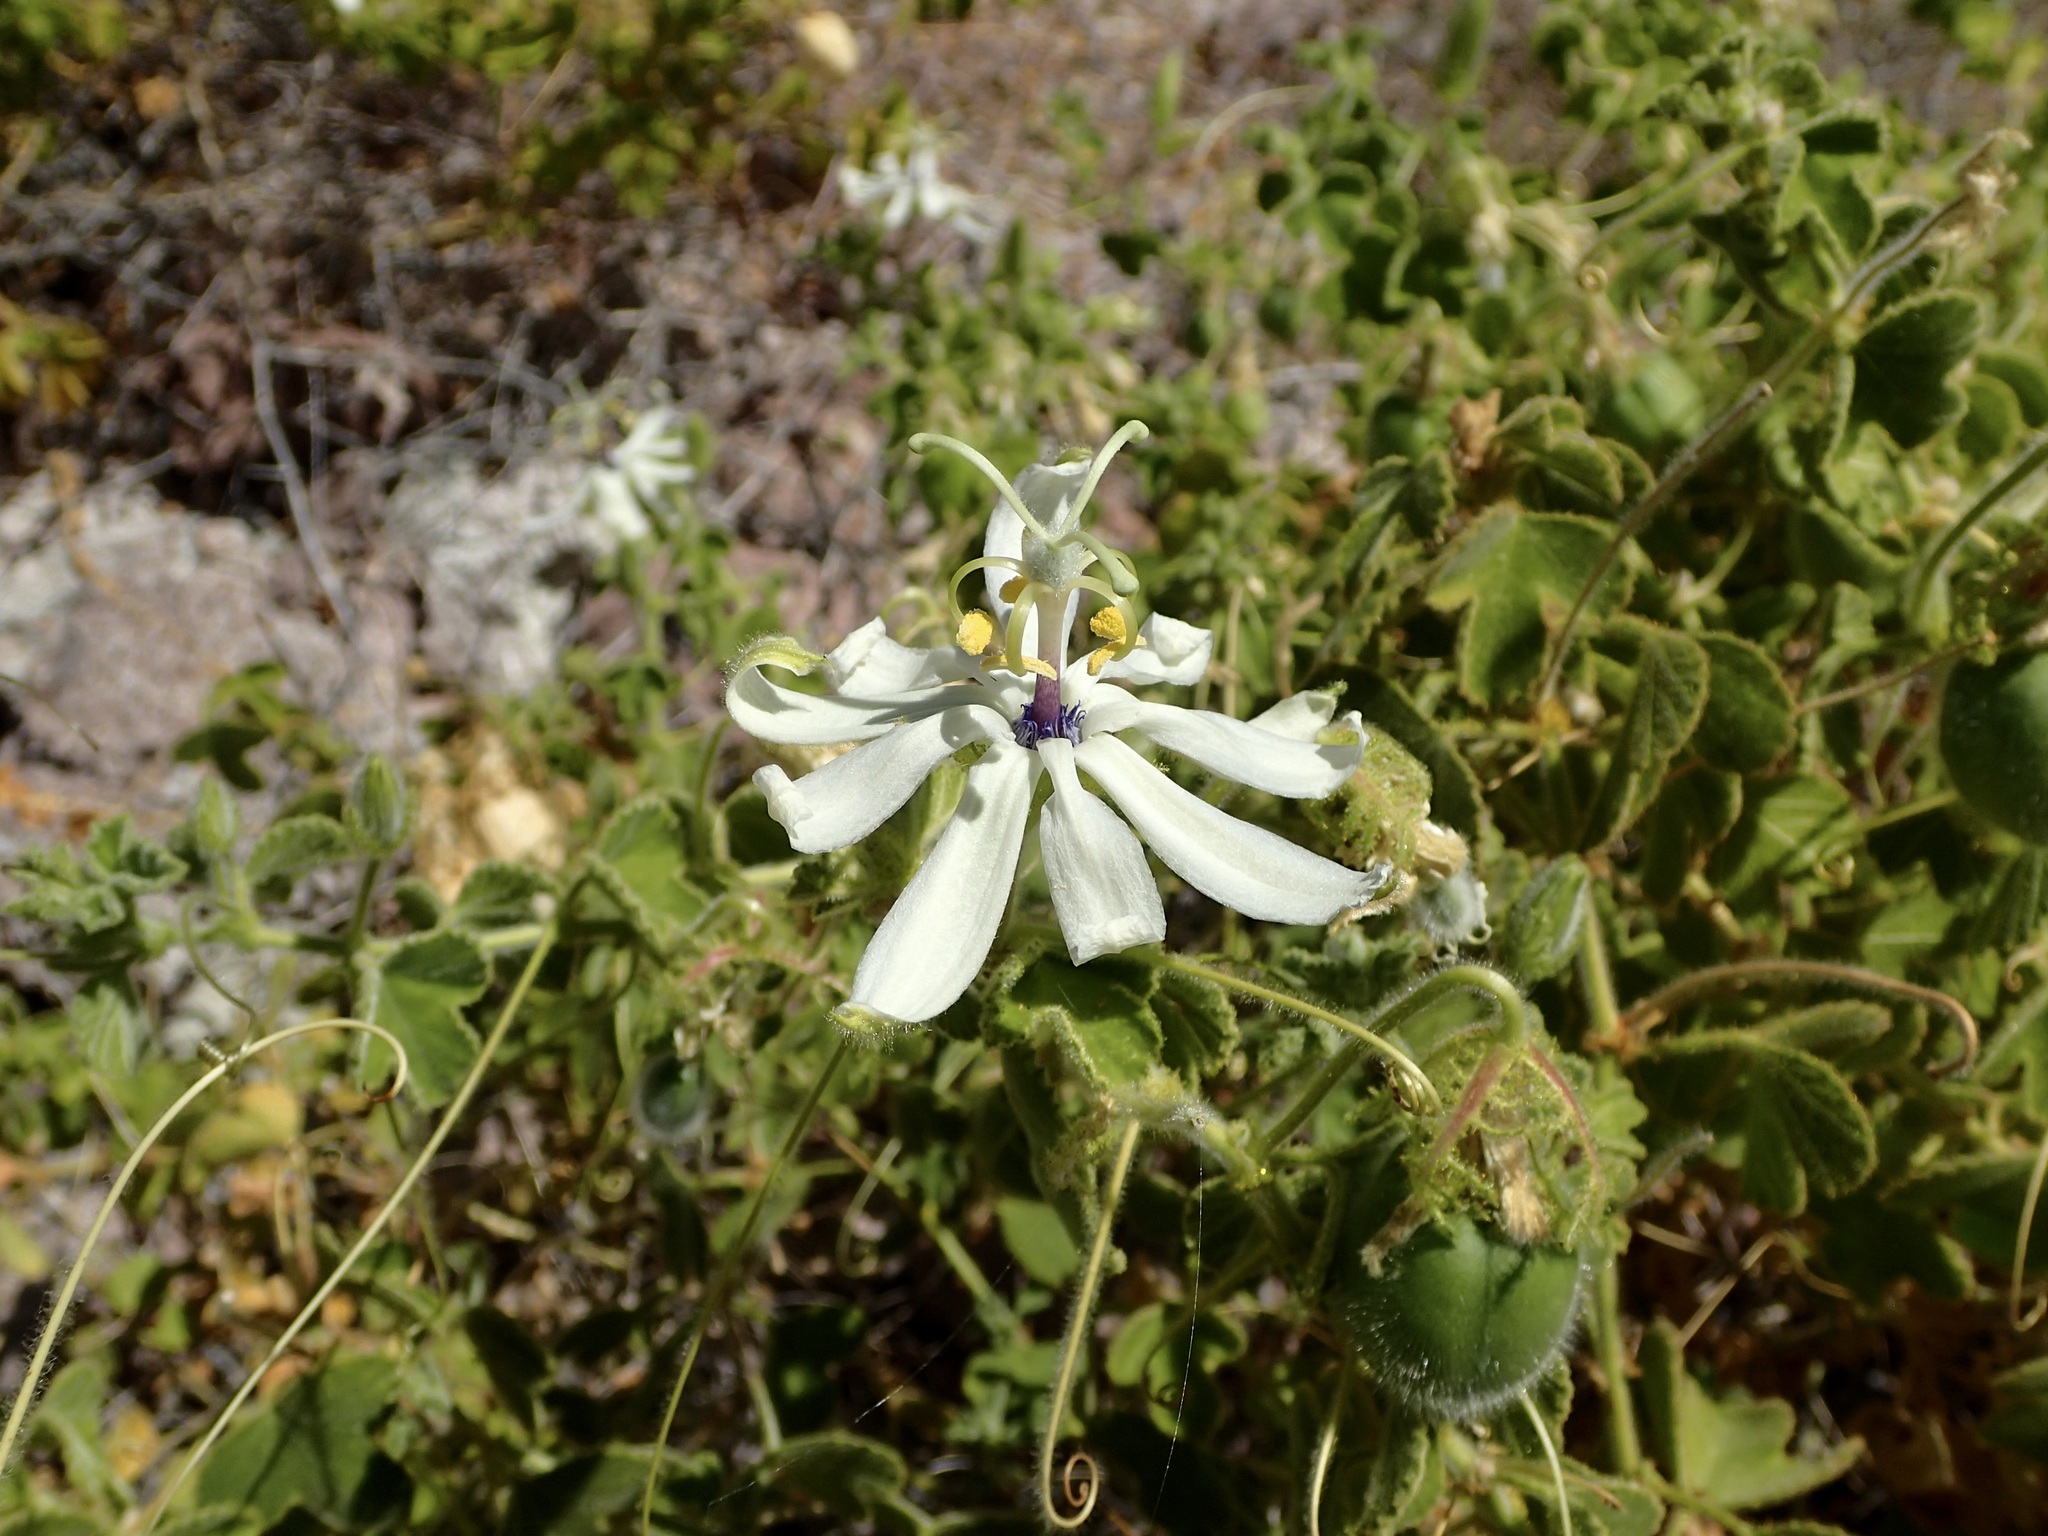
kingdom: Plantae
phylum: Tracheophyta
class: Magnoliopsida
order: Malpighiales
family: Passifloraceae
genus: Passiflora
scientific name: Passiflora palmeri
